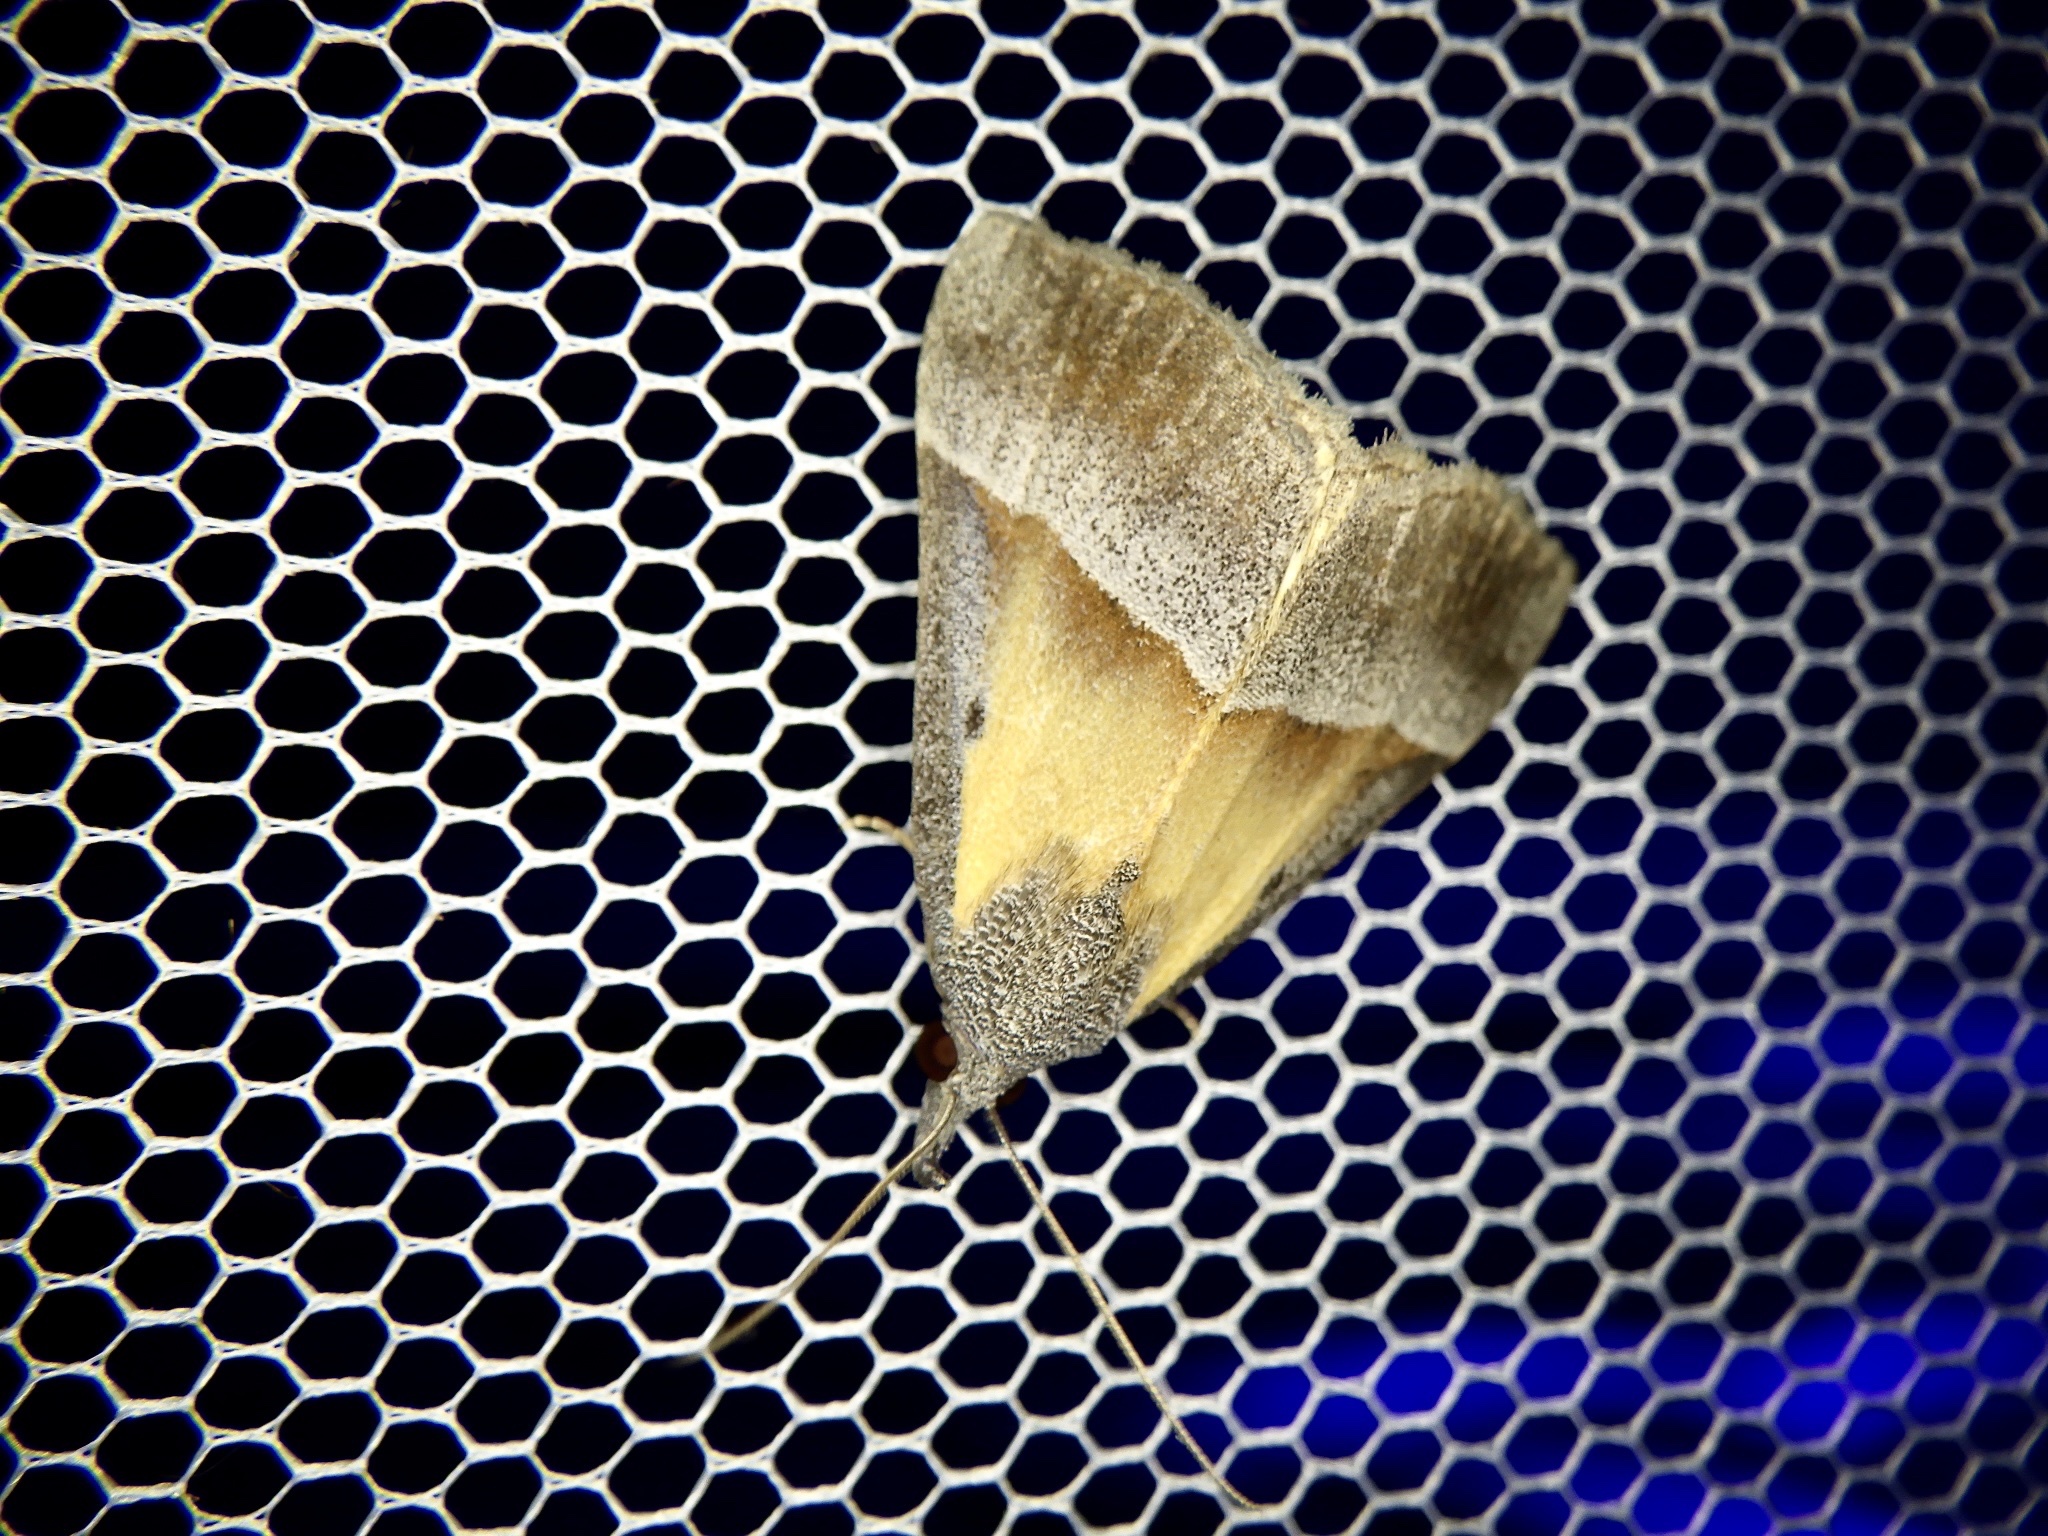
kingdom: Animalia
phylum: Arthropoda
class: Insecta
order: Lepidoptera
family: Erebidae
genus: Hypena
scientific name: Hypena claripennis
